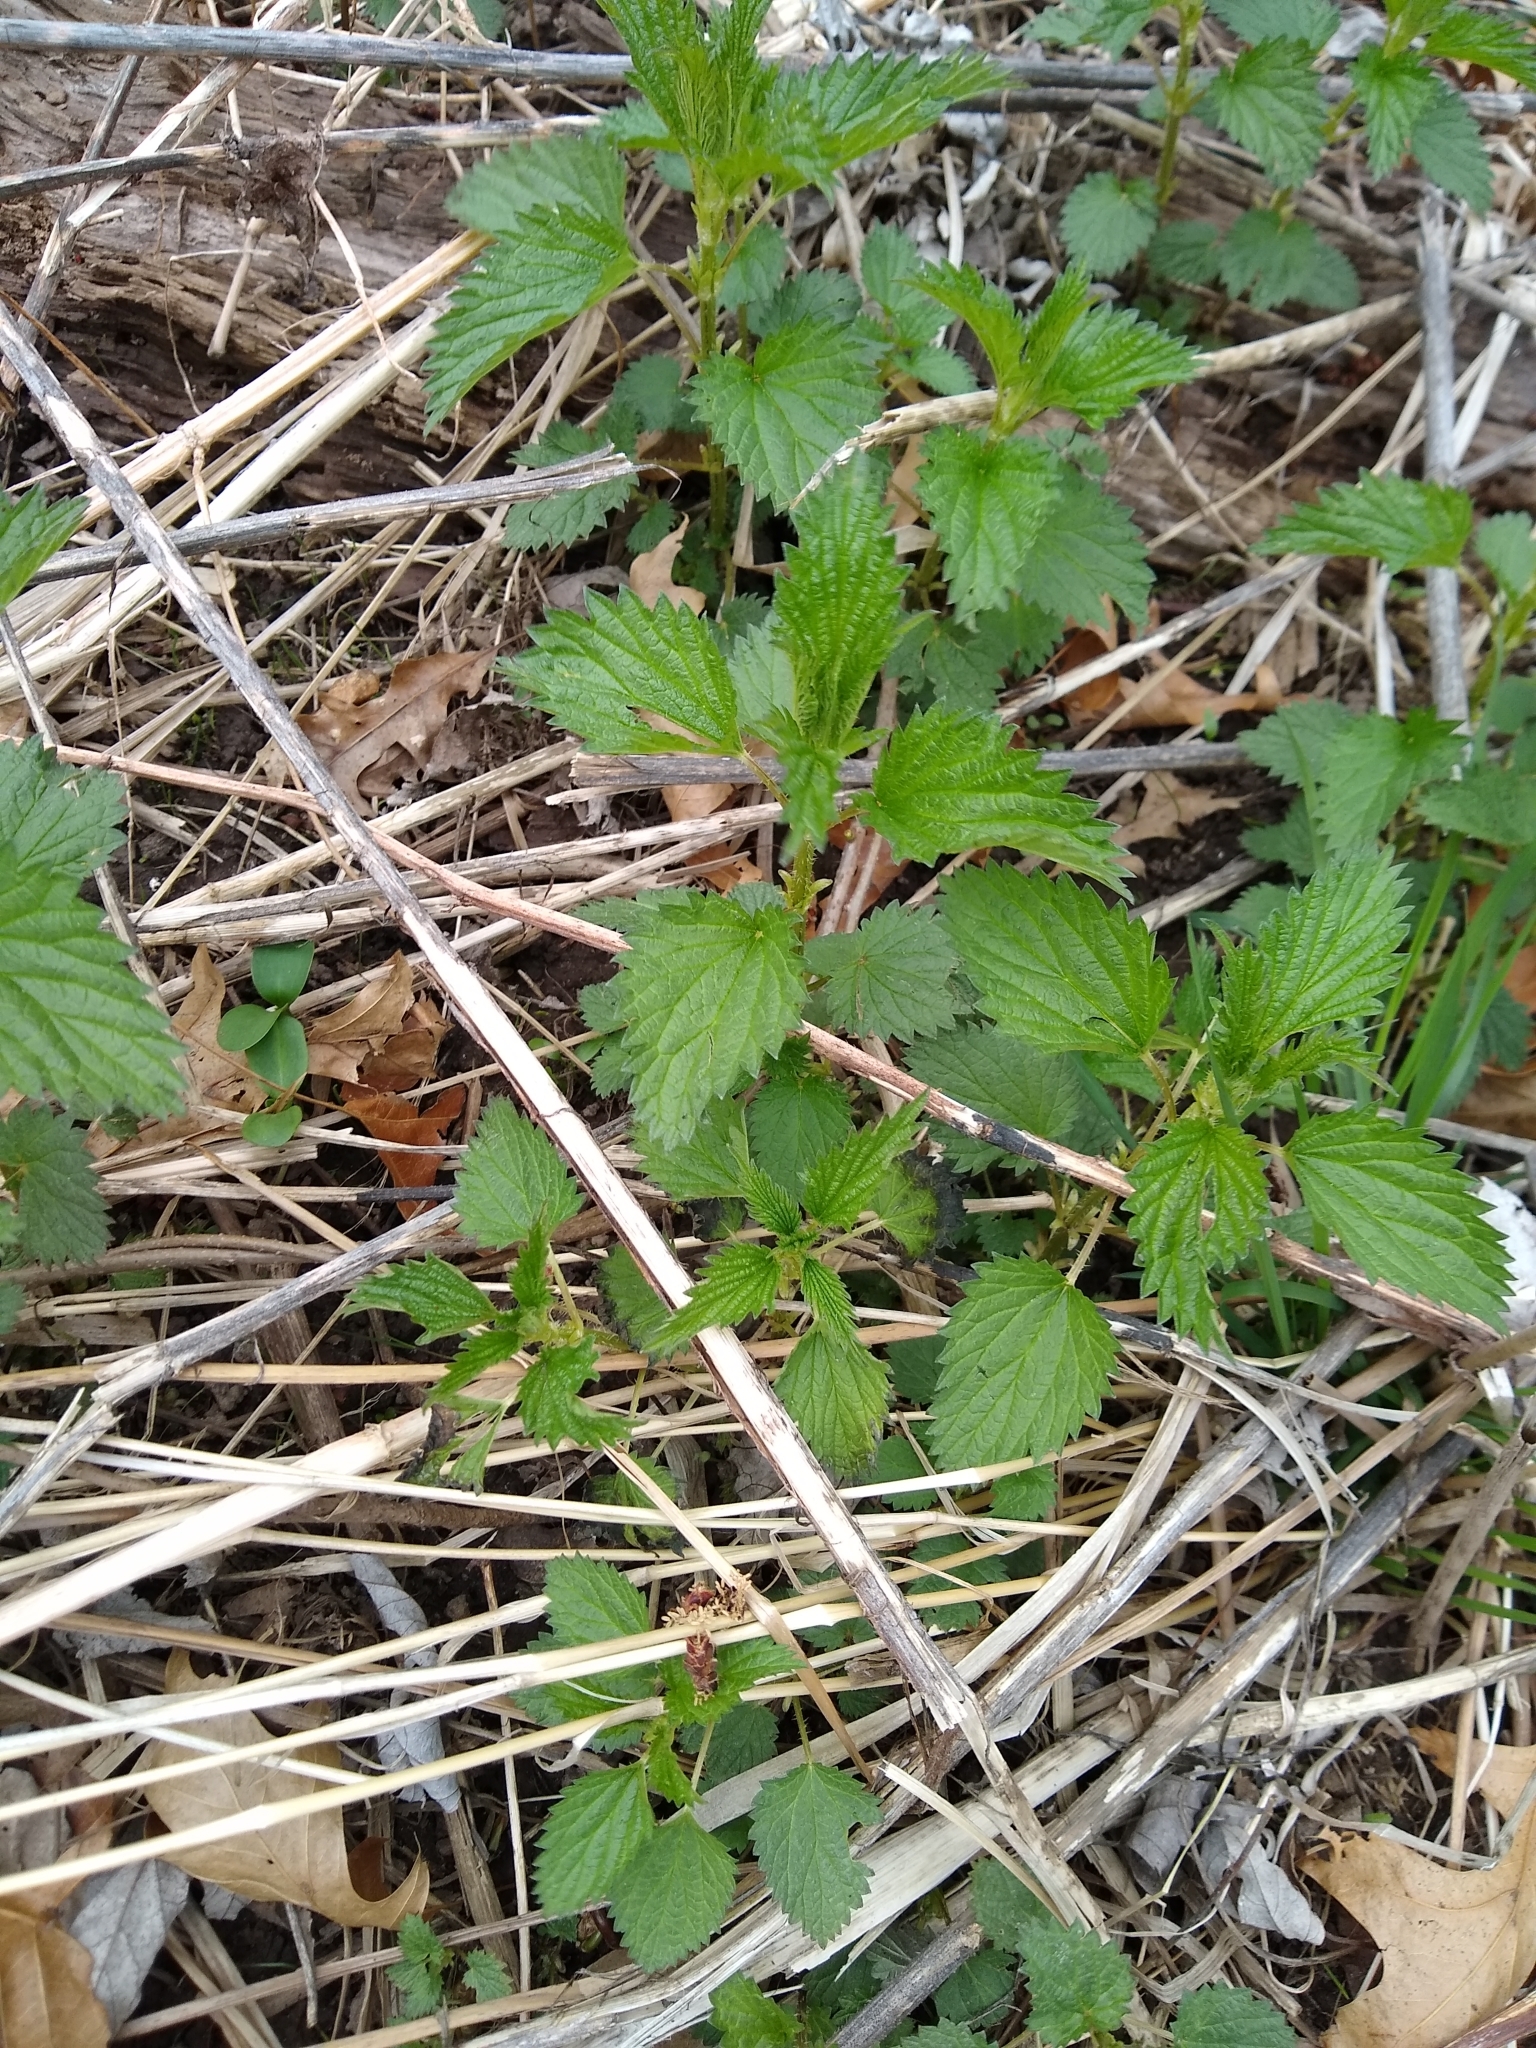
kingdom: Plantae
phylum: Tracheophyta
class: Magnoliopsida
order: Rosales
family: Urticaceae
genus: Urtica
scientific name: Urtica dioica
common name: Common nettle
